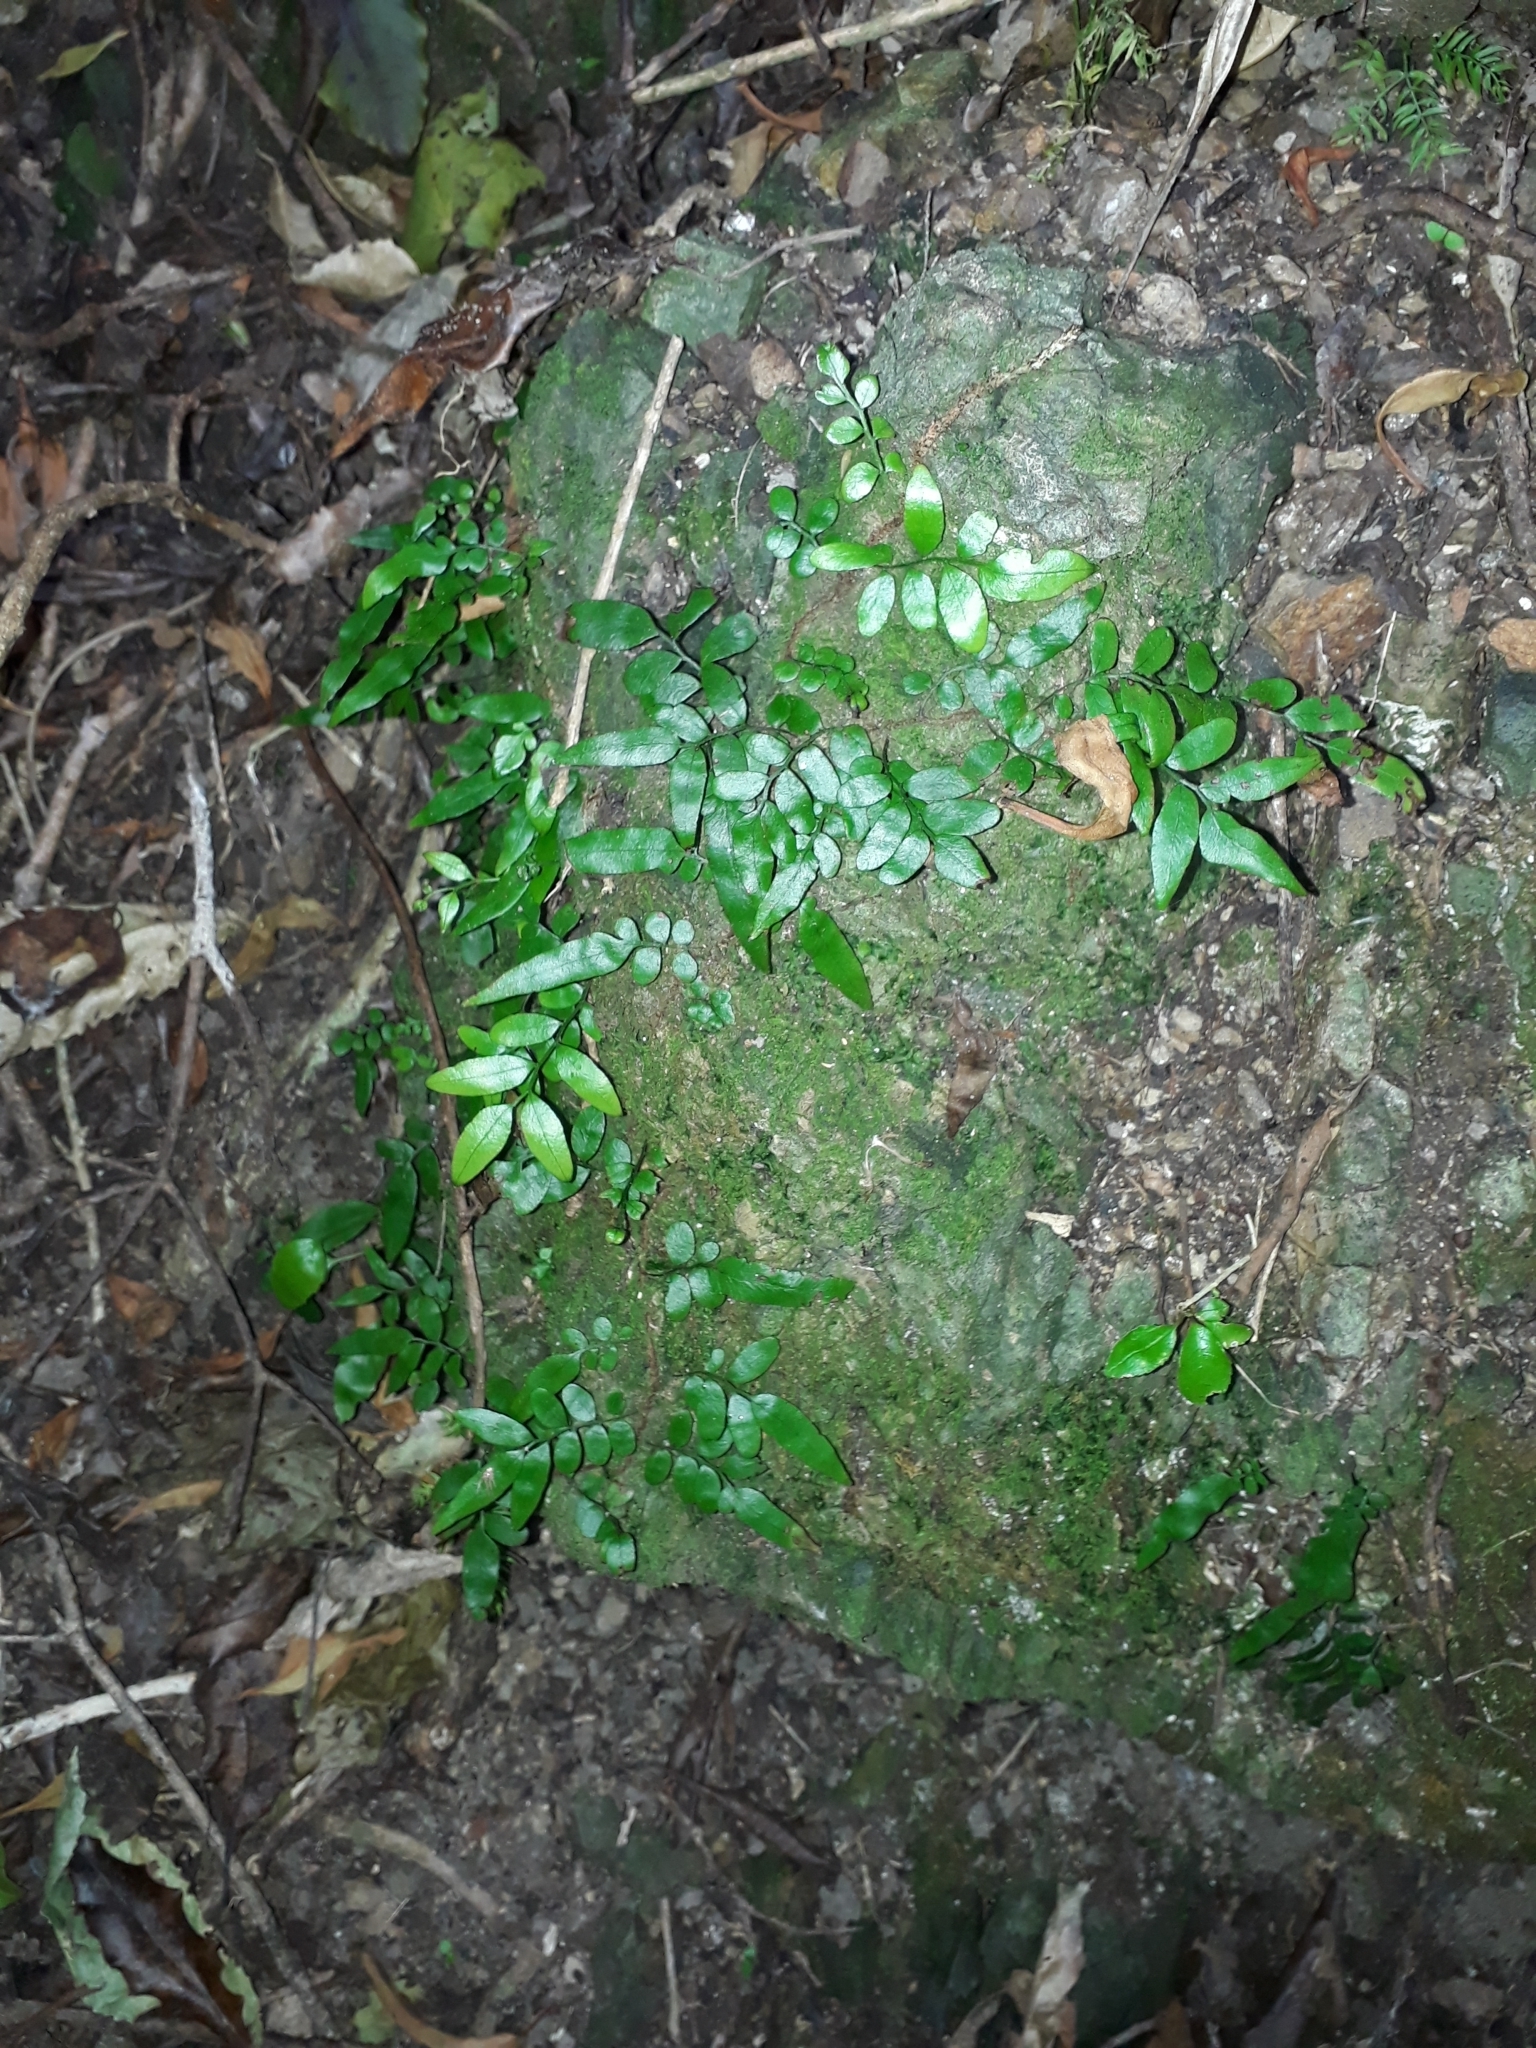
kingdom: Plantae
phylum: Tracheophyta
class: Polypodiopsida
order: Polypodiales
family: Tectariaceae
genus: Arthropteris
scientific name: Arthropteris tenella
